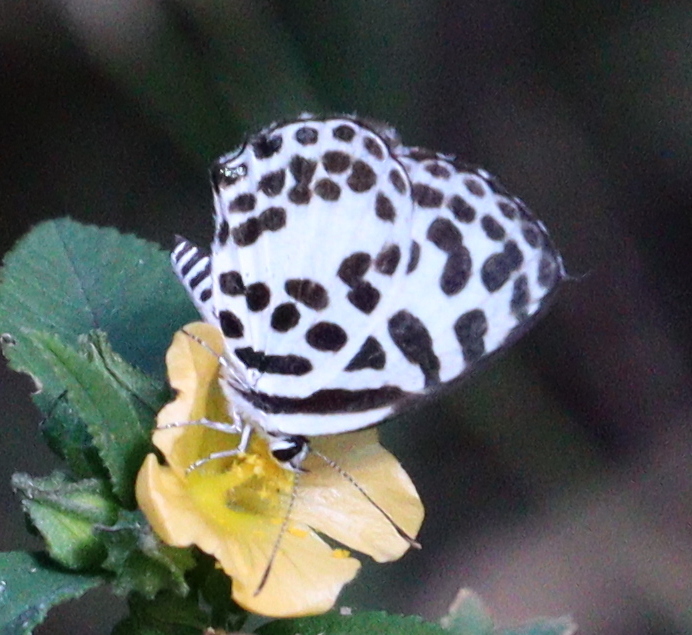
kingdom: Animalia
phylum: Arthropoda
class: Insecta
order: Lepidoptera
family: Lycaenidae
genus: Castalius
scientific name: Castalius rosimon
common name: Common pierrot
